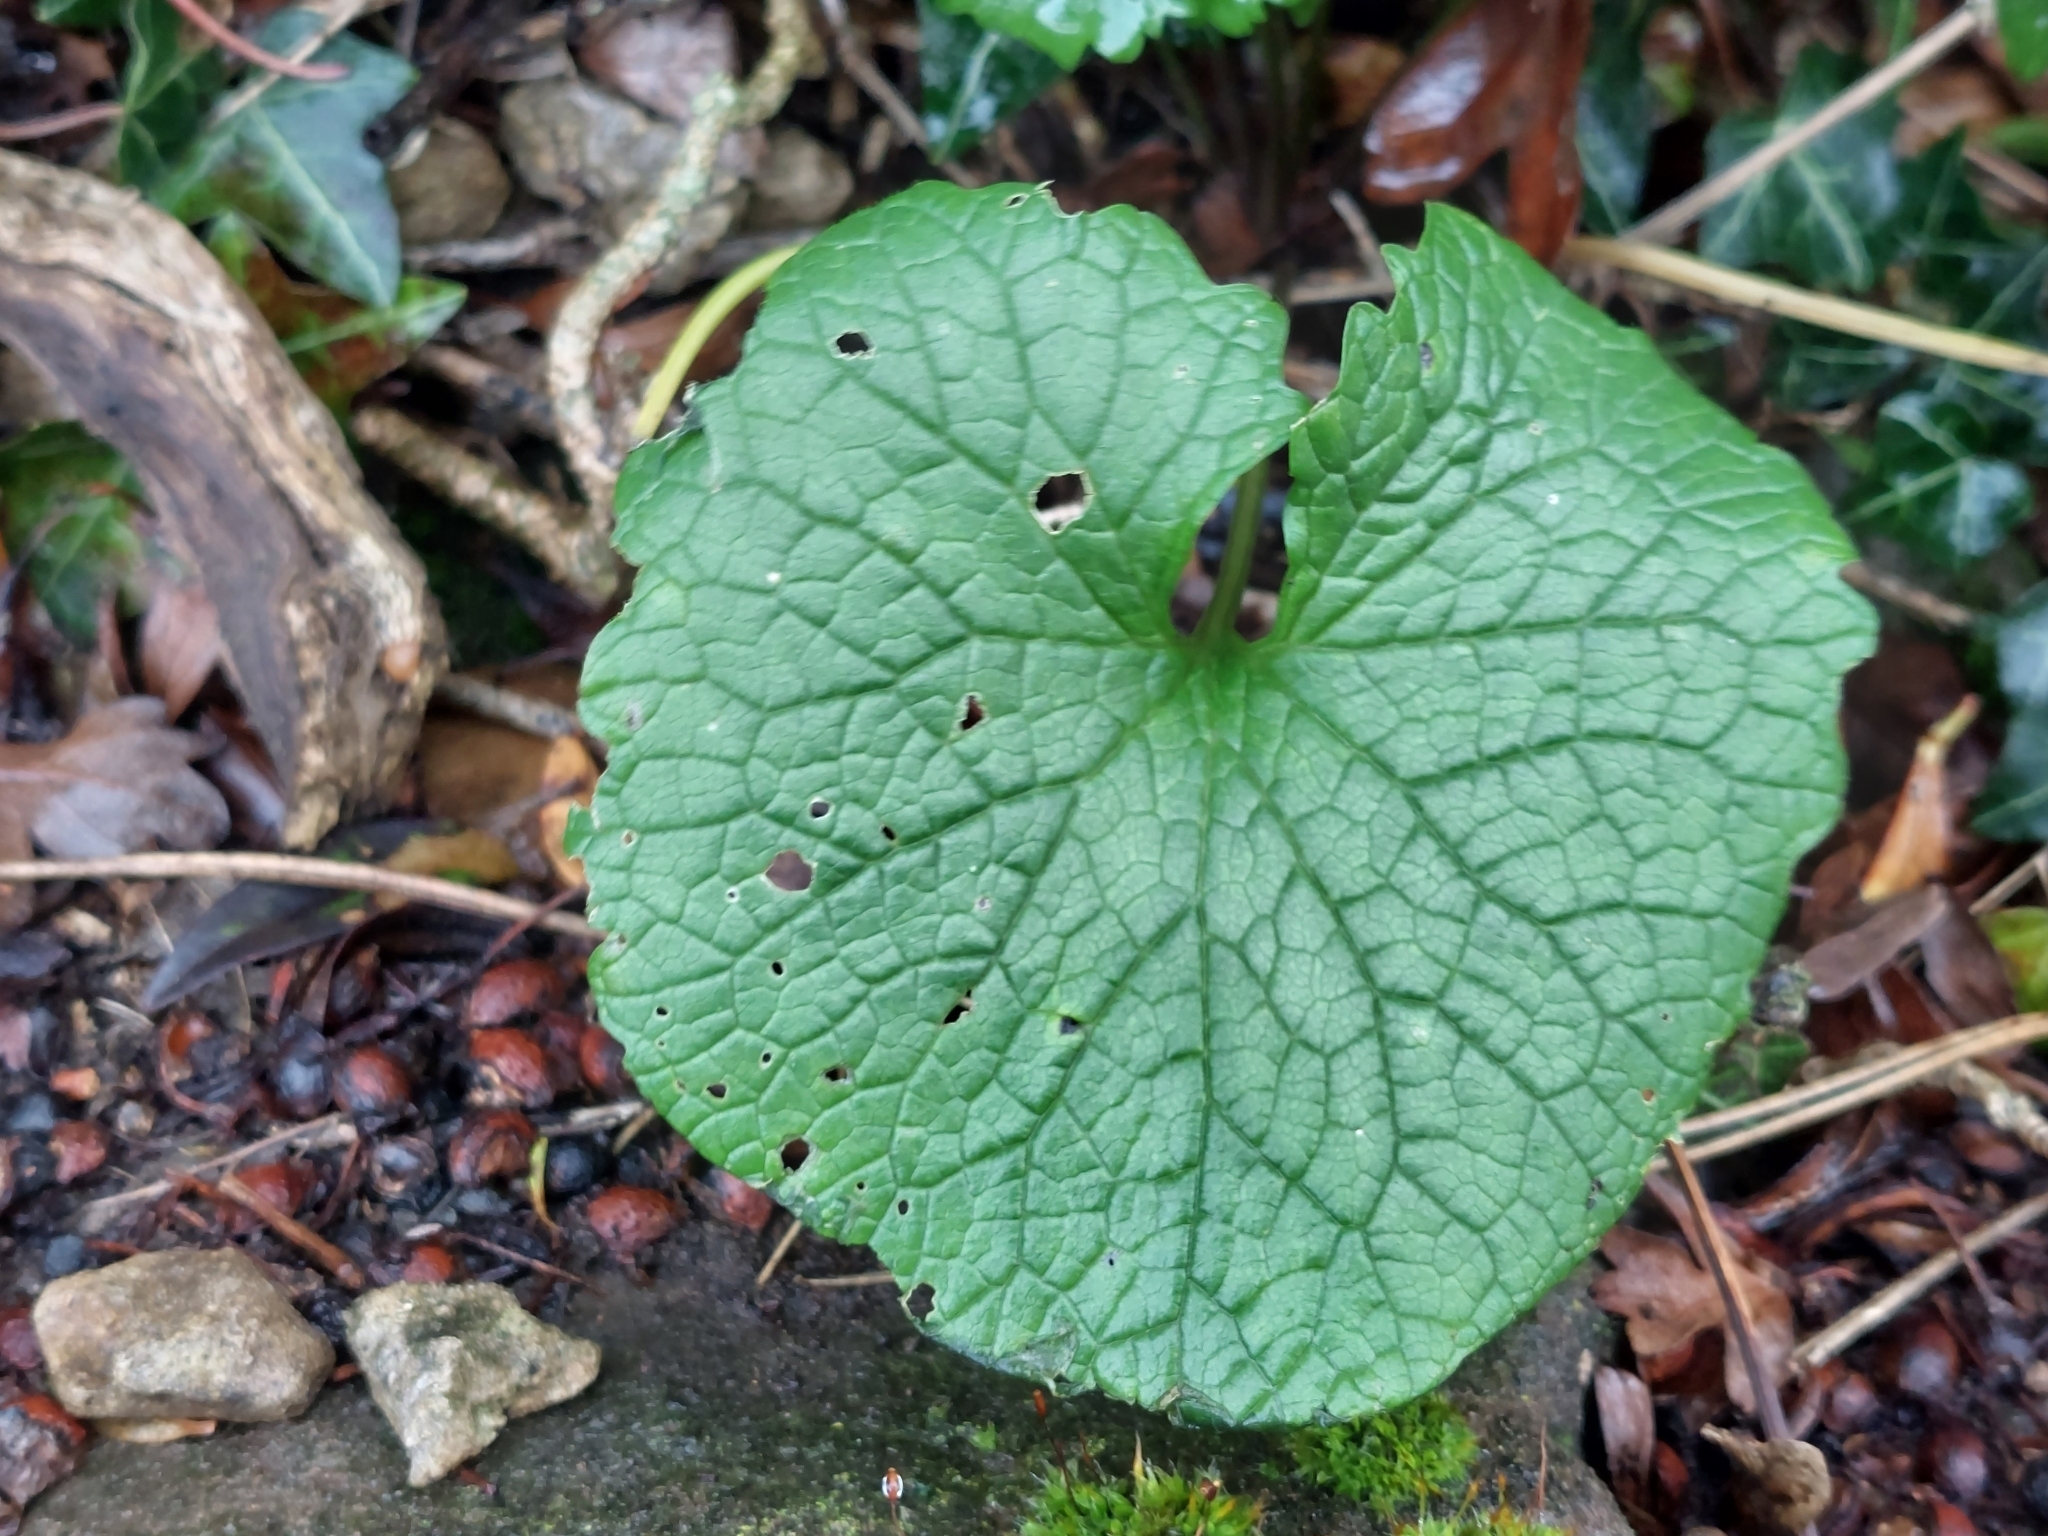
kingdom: Plantae
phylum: Tracheophyta
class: Magnoliopsida
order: Brassicales
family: Brassicaceae
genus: Alliaria
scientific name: Alliaria petiolata
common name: Garlic mustard
